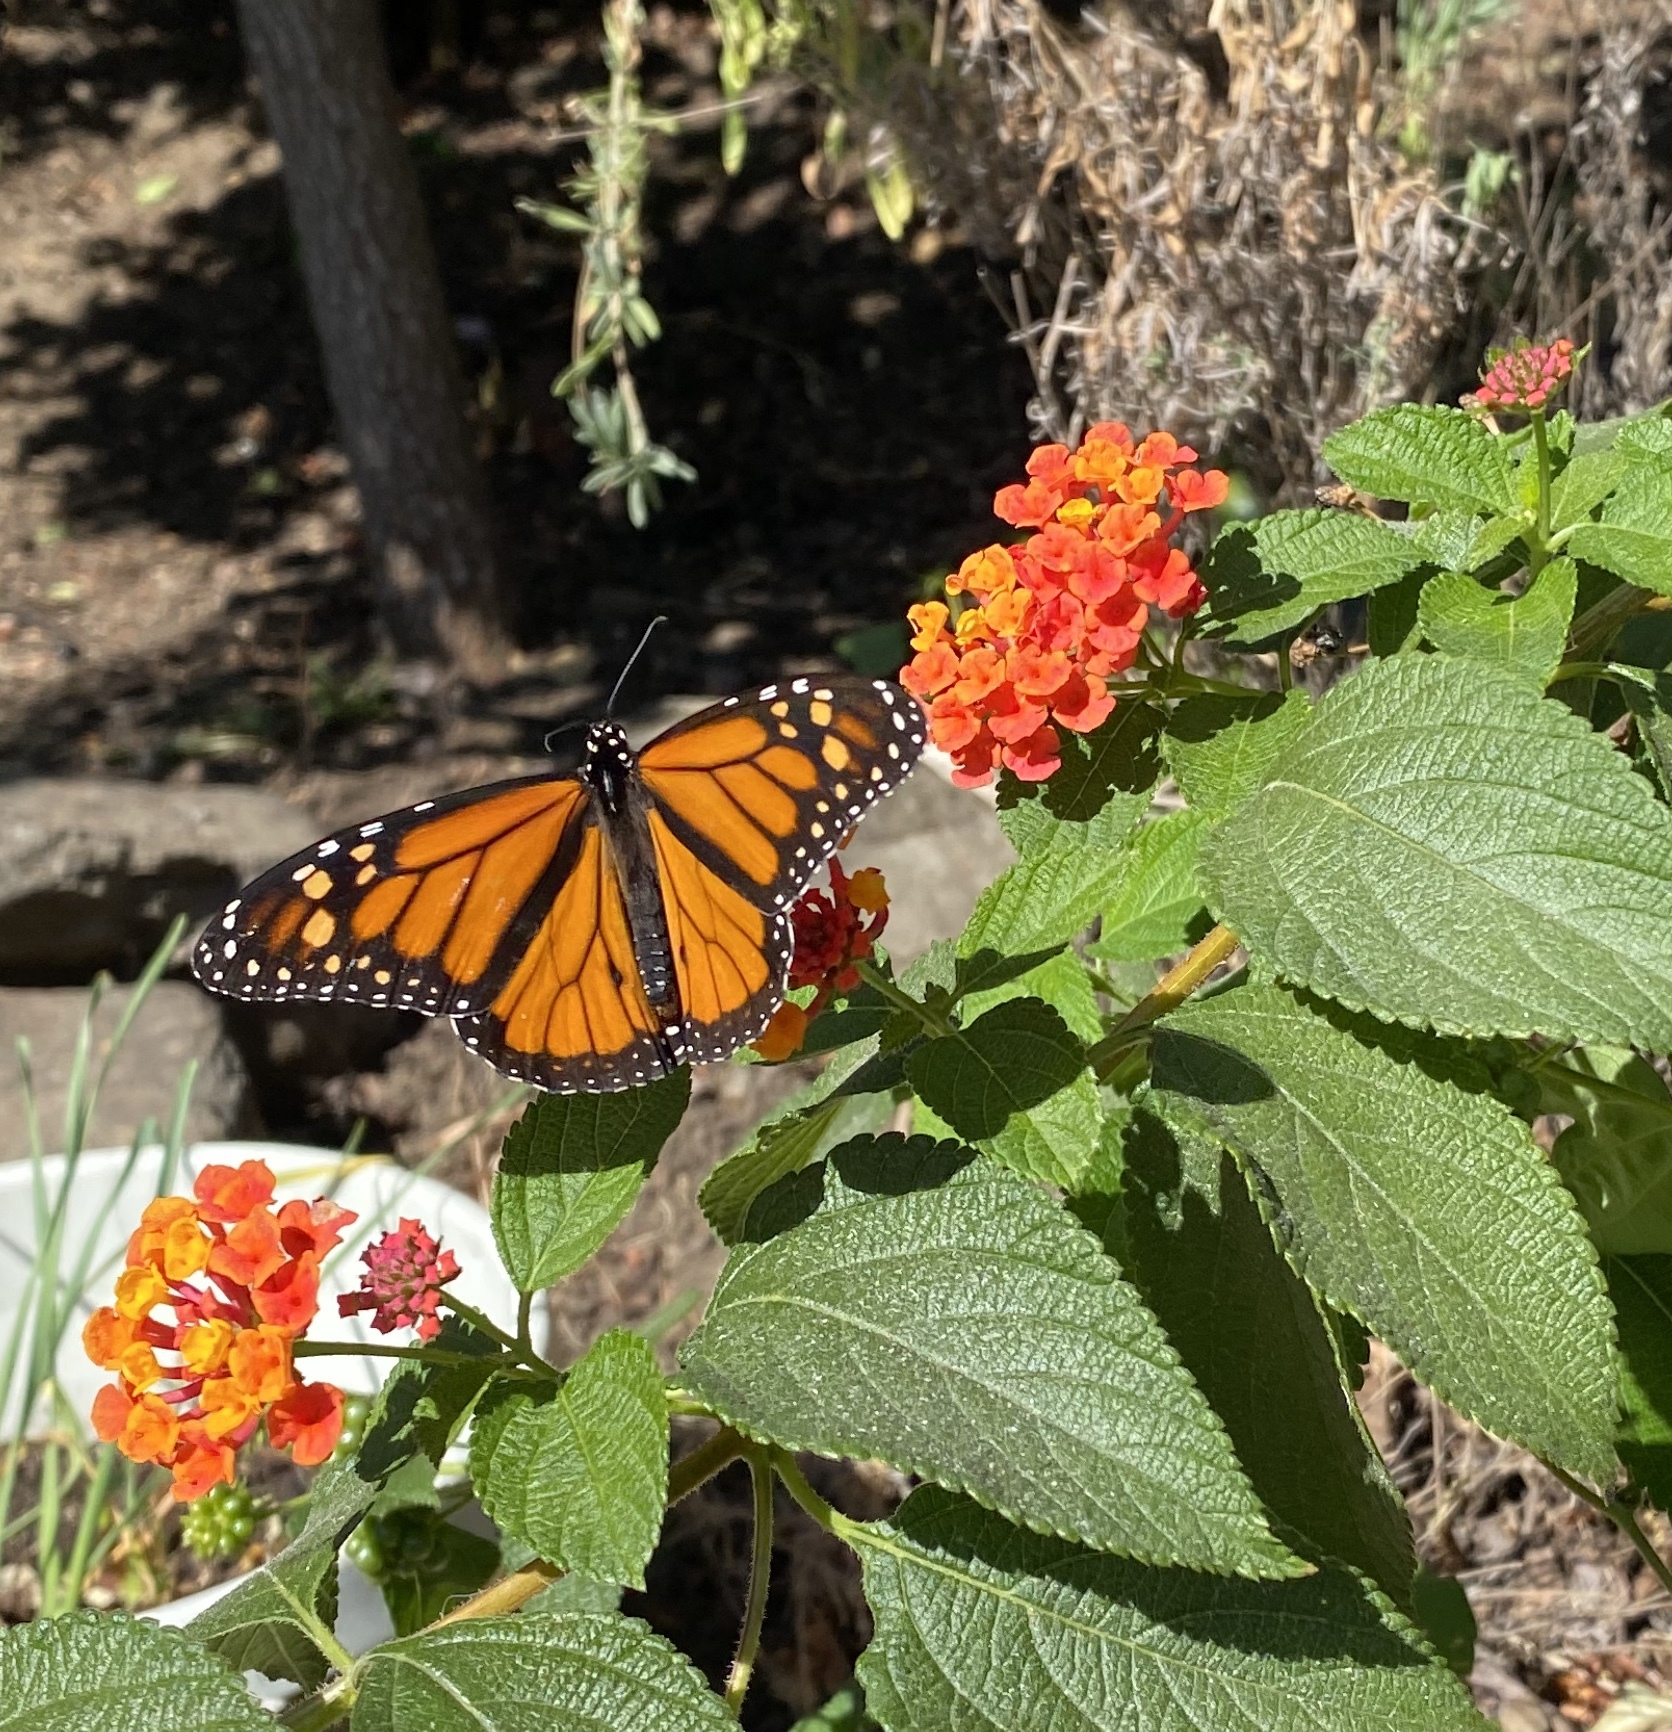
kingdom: Animalia
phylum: Arthropoda
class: Insecta
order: Lepidoptera
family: Nymphalidae
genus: Danaus
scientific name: Danaus plexippus
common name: Monarch
